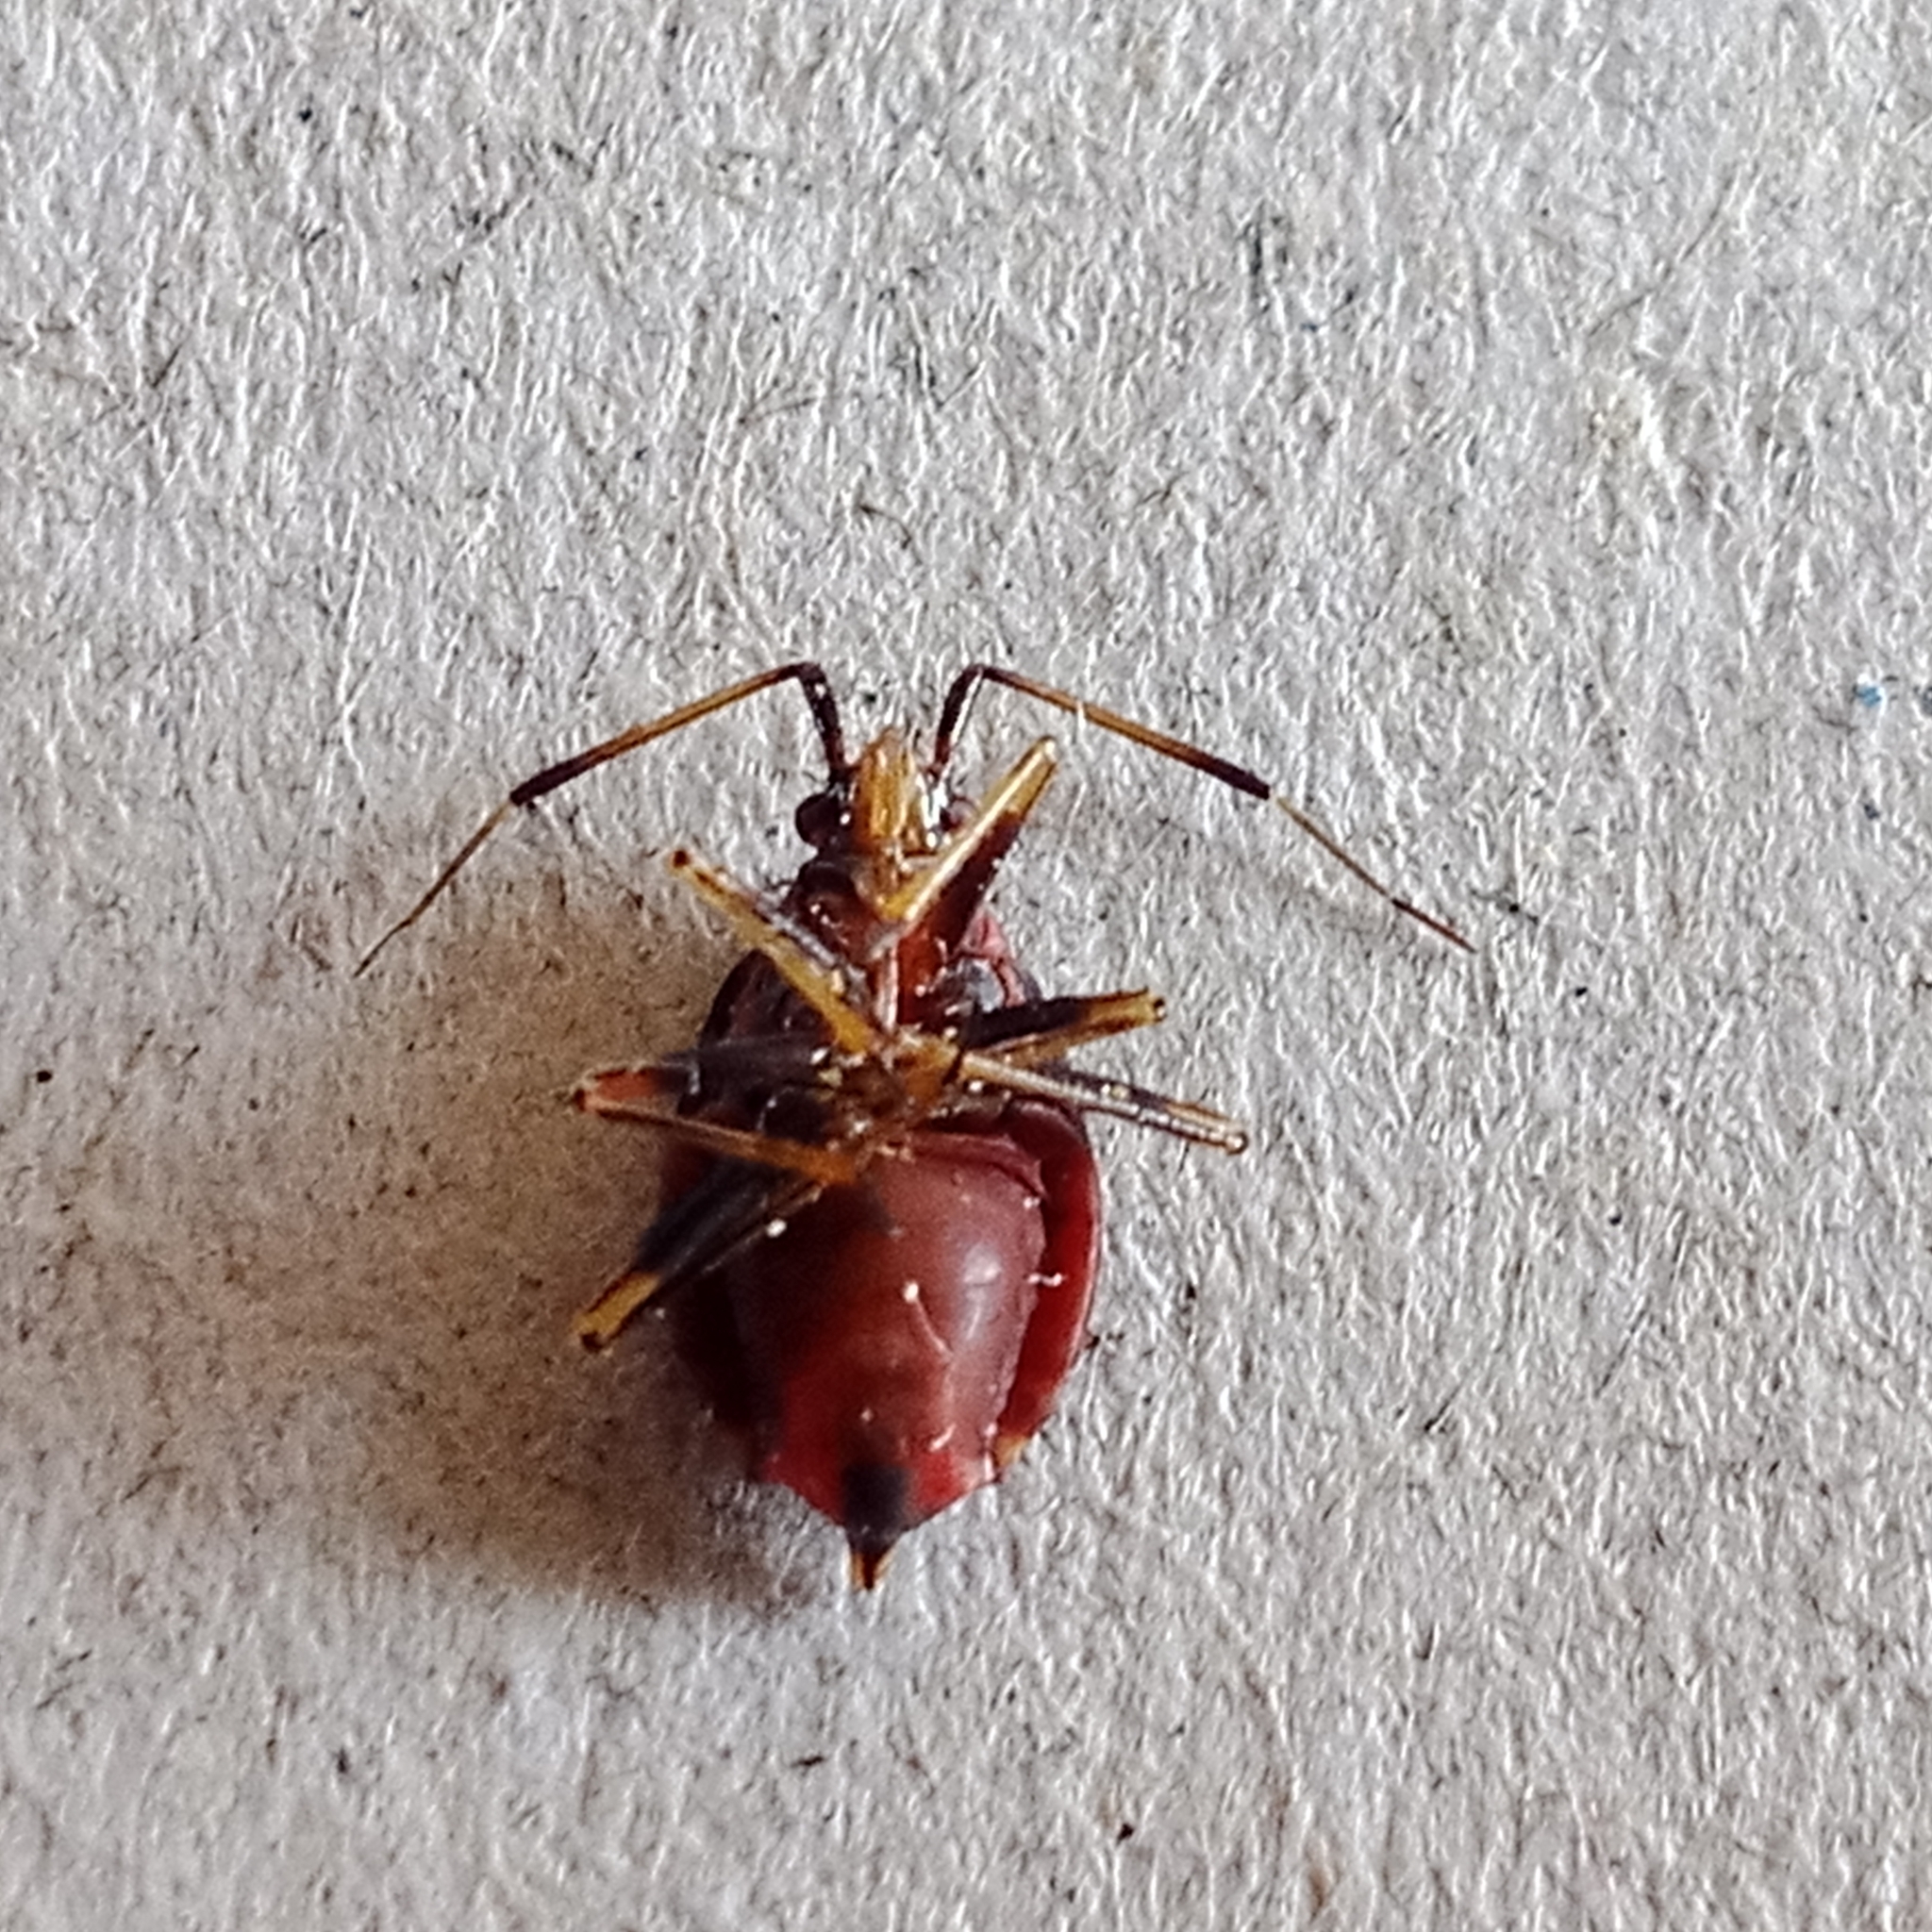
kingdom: Animalia
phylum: Arthropoda
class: Insecta
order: Hemiptera
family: Miridae
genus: Deraeocoris
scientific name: Deraeocoris ruber
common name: Plant bug
